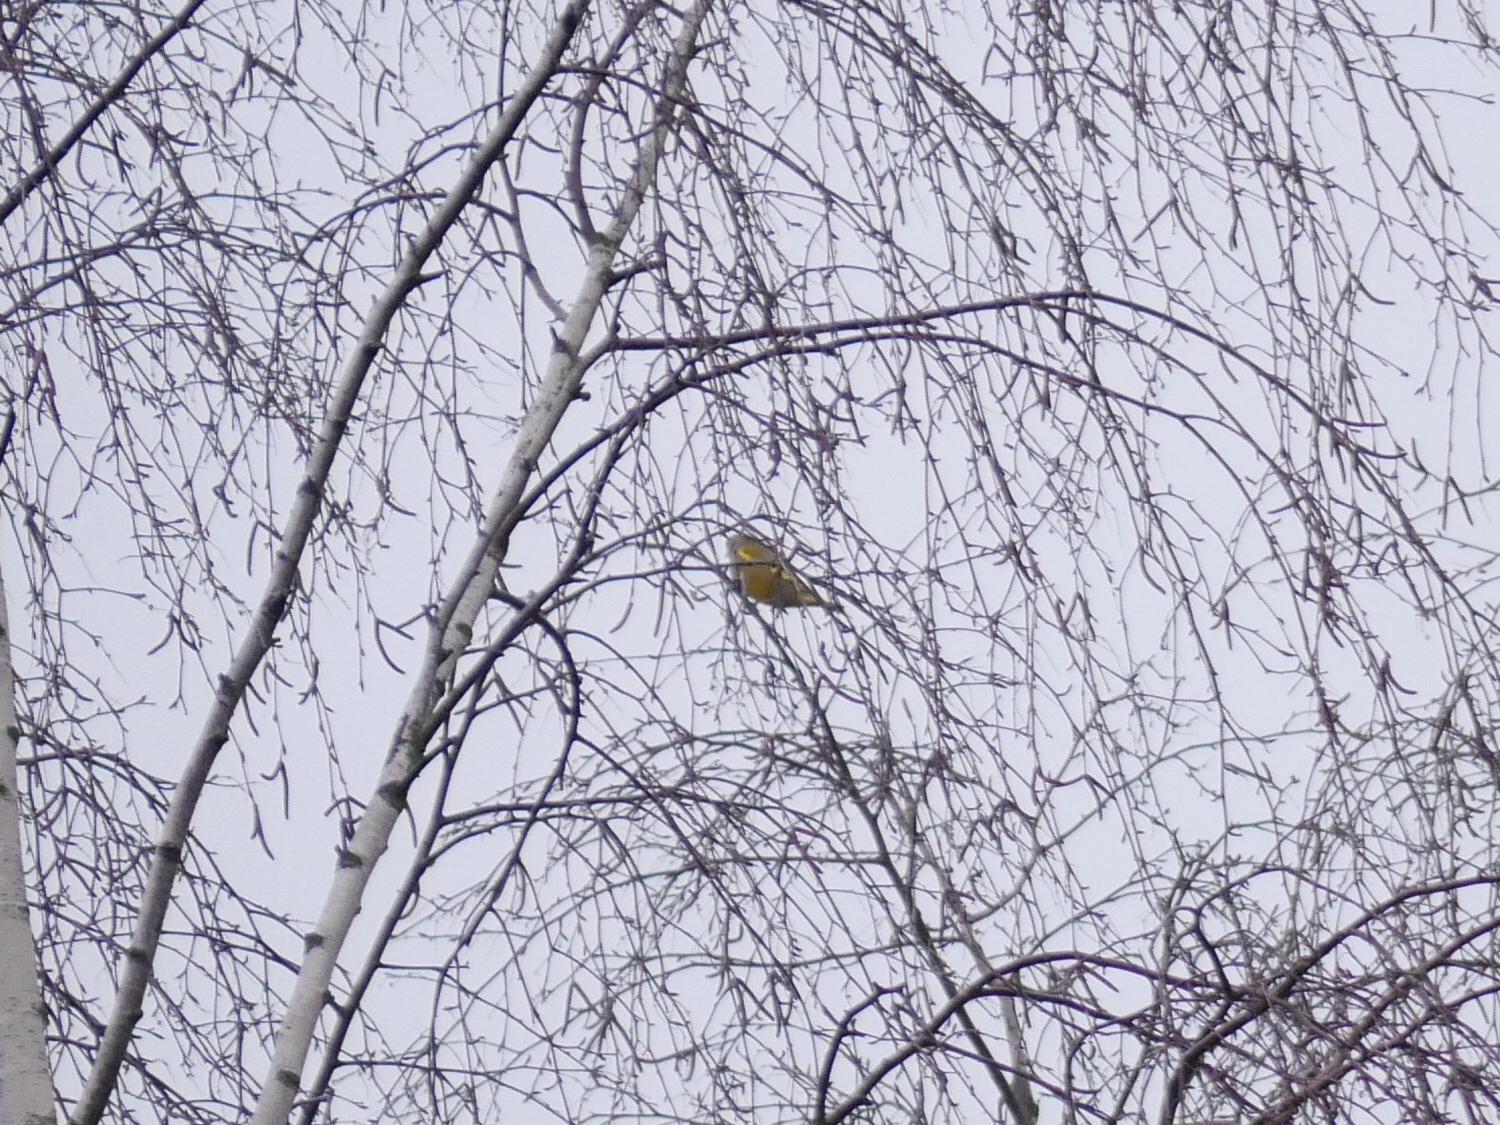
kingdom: Plantae
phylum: Tracheophyta
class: Liliopsida
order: Poales
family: Poaceae
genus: Chloris
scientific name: Chloris chloris
